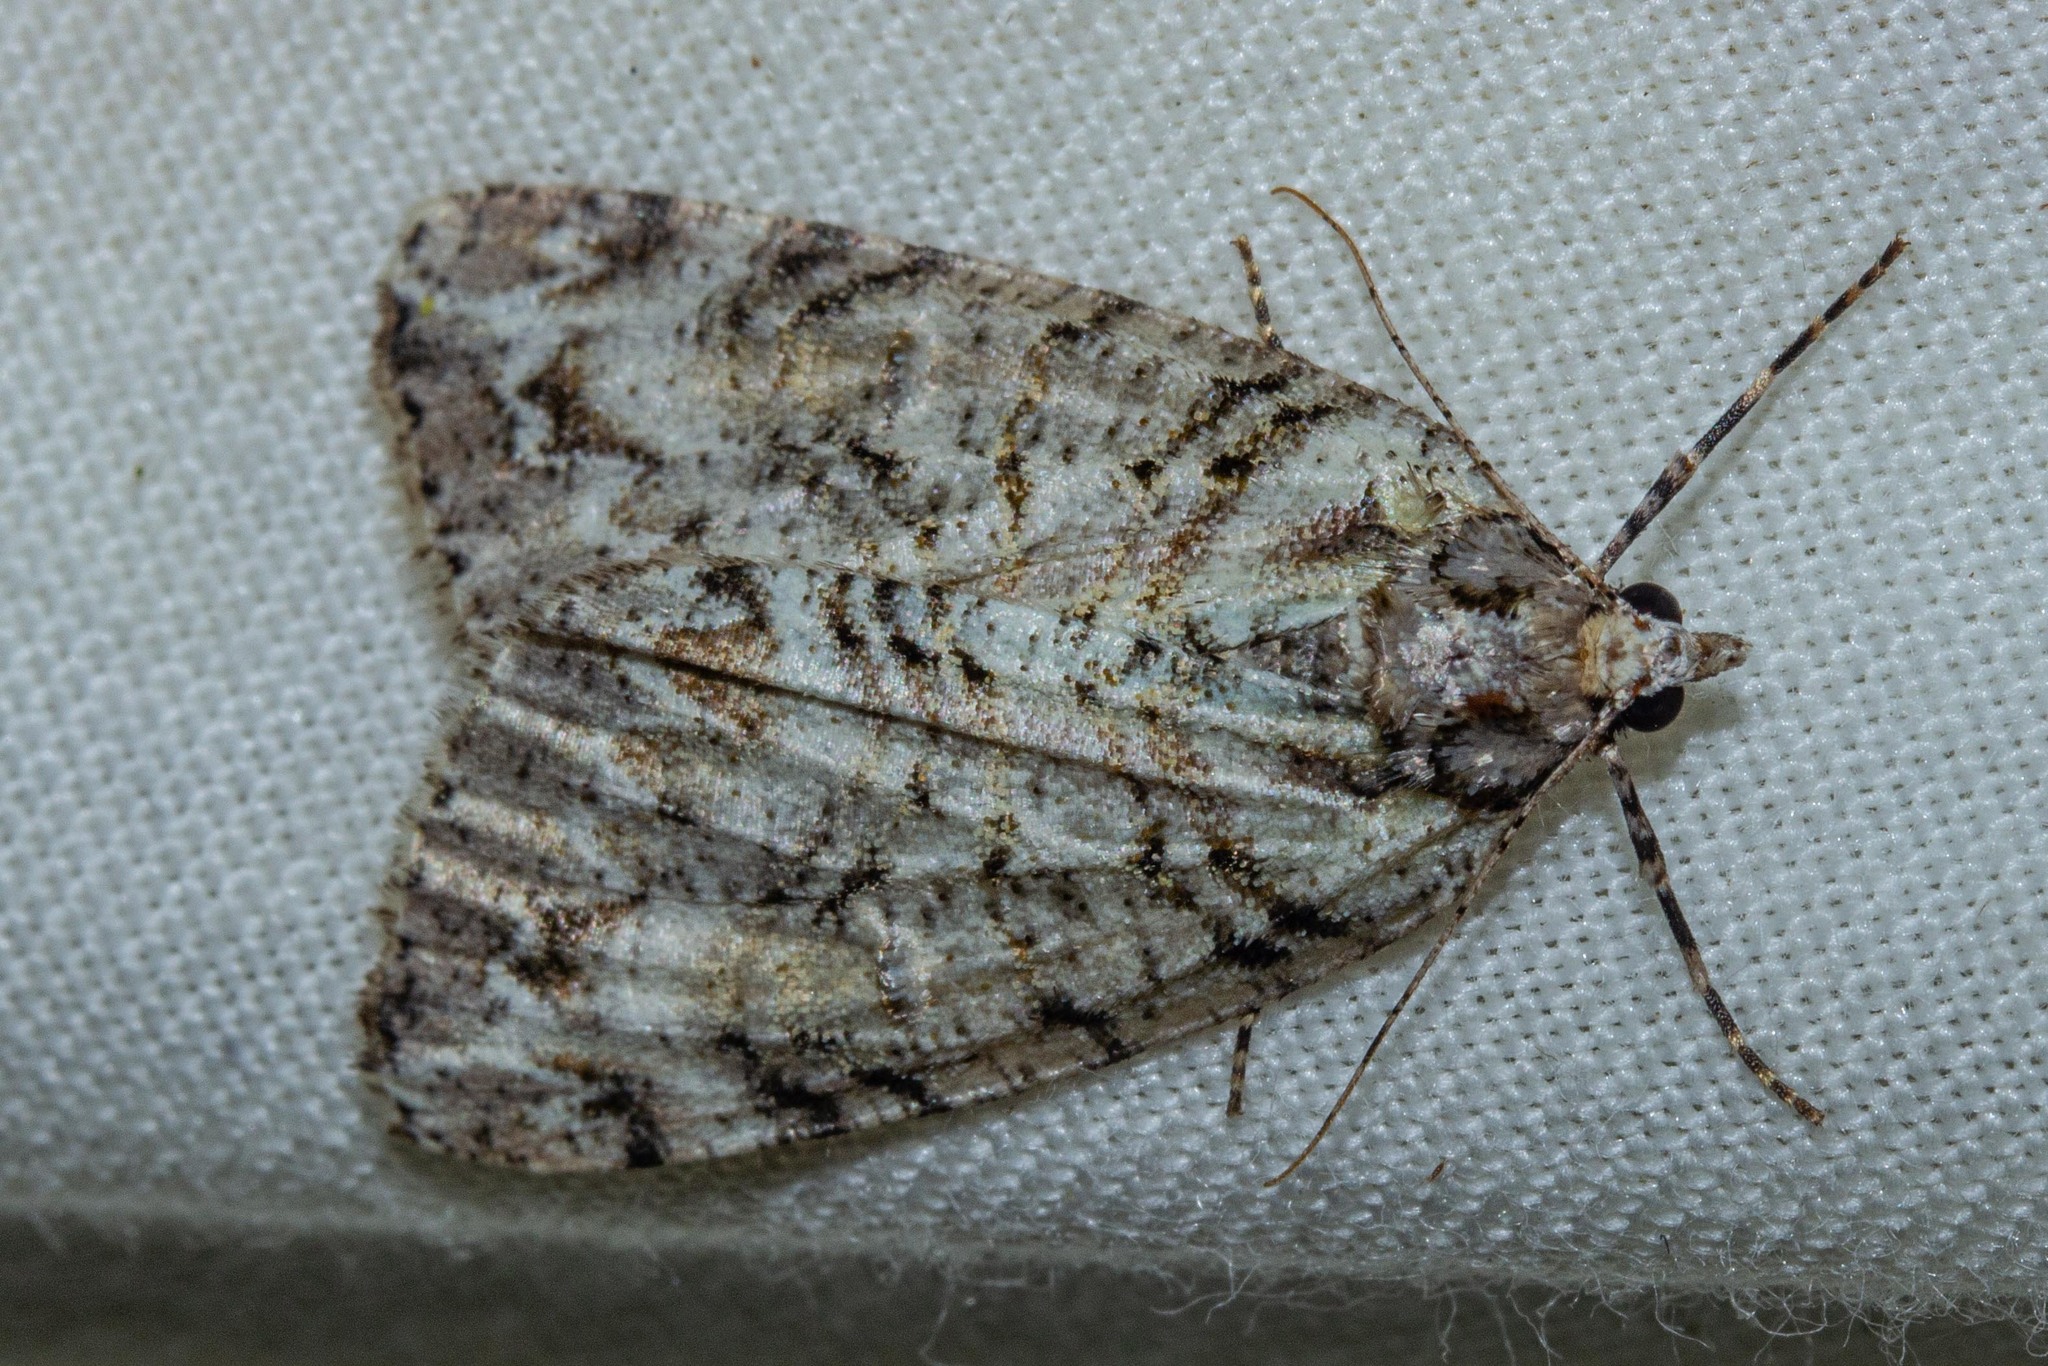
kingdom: Animalia
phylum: Arthropoda
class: Insecta
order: Lepidoptera
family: Geometridae
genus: Pseudocoremia
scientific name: Pseudocoremia suavis
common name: Common forest looper
